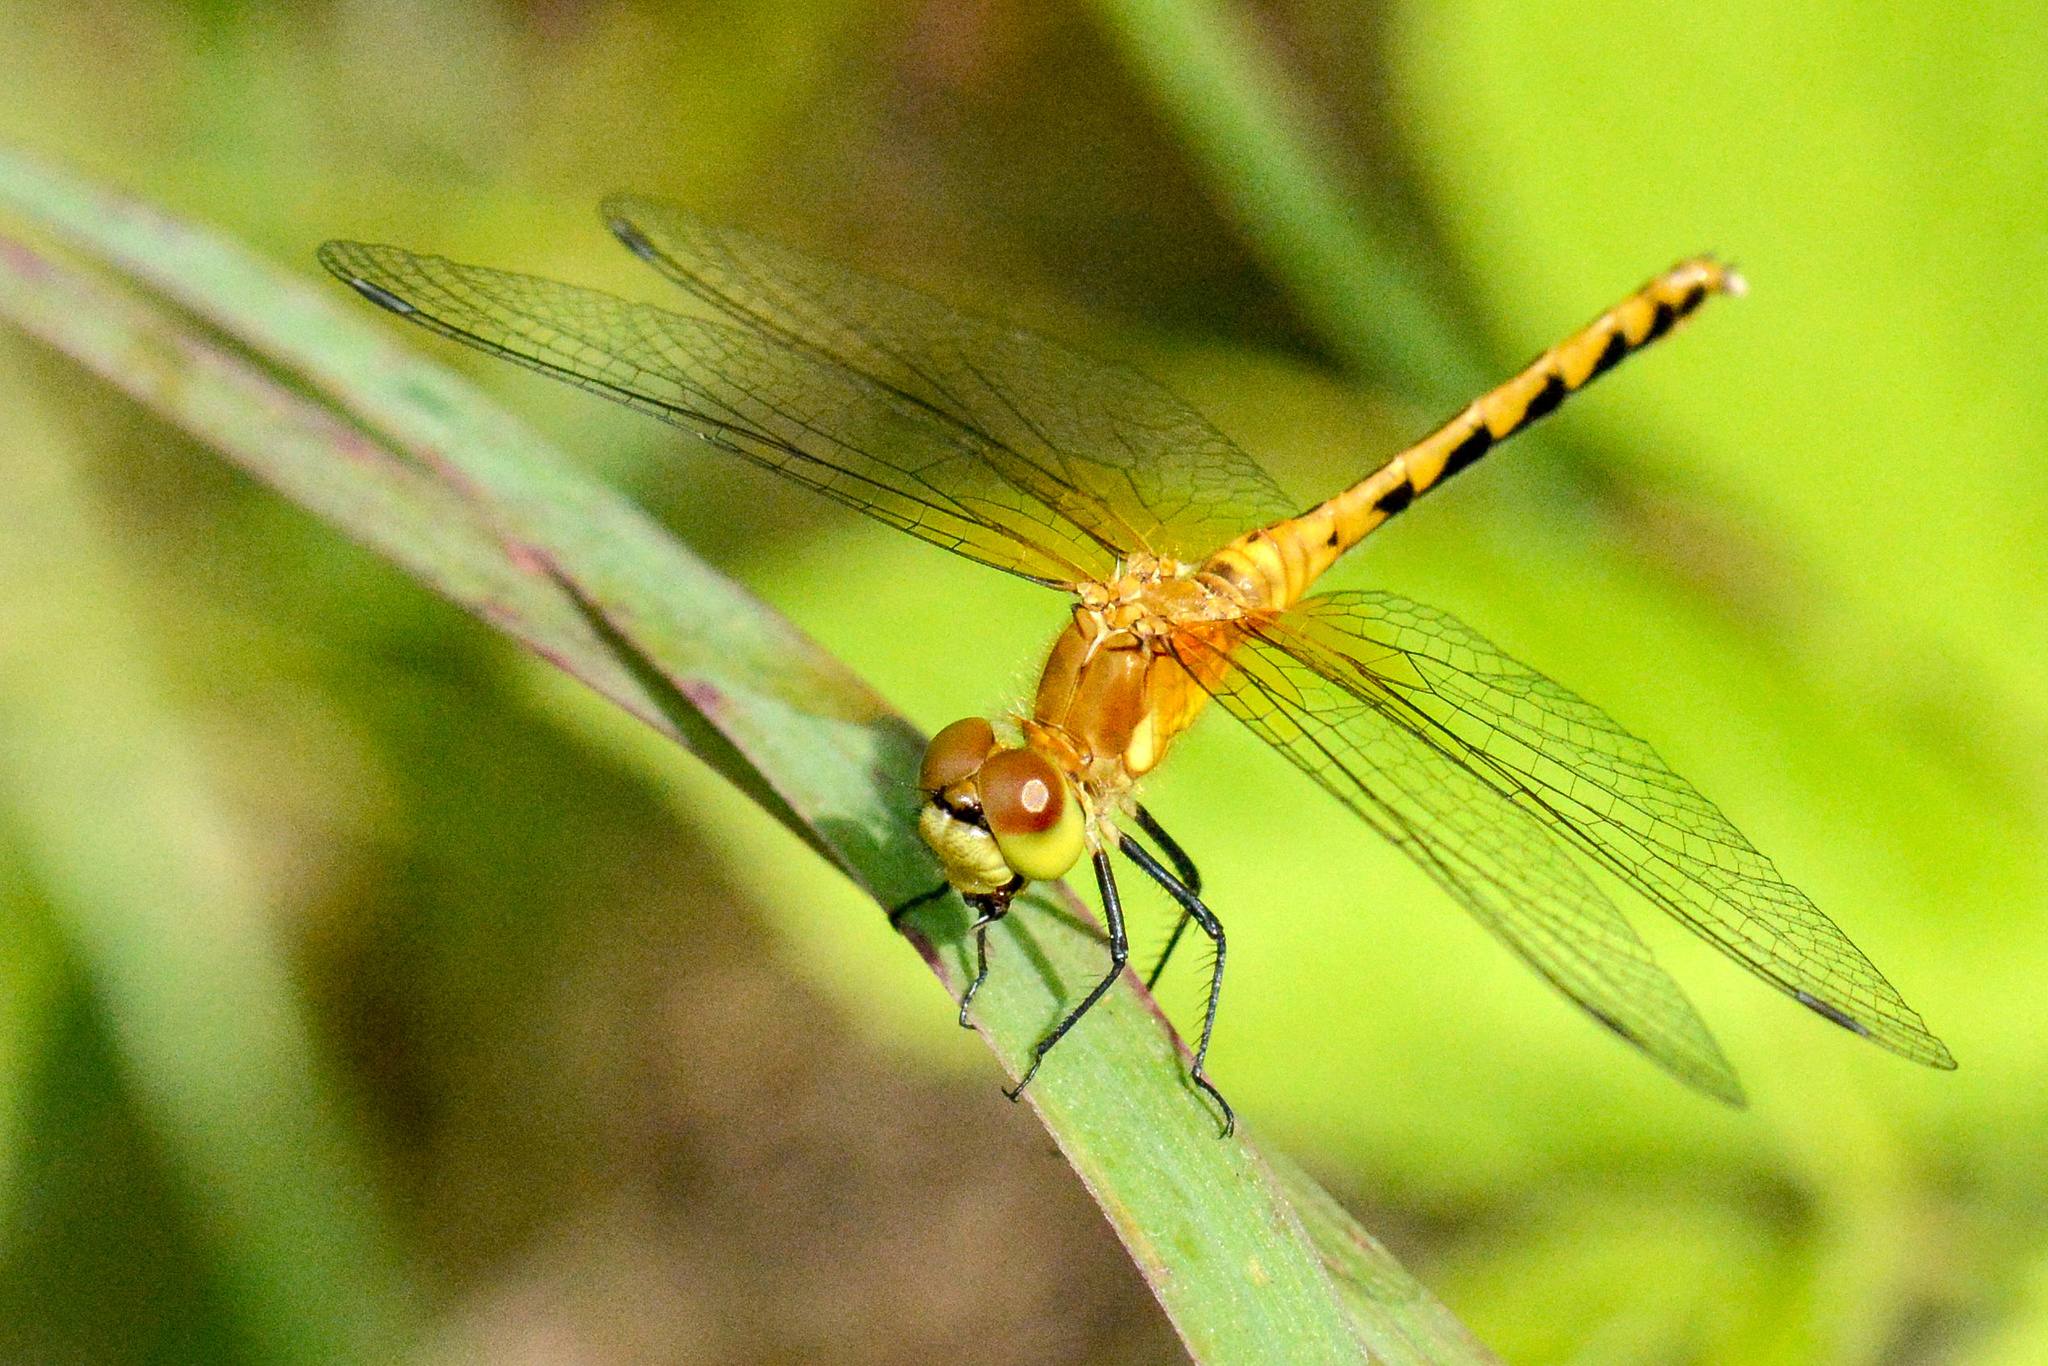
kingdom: Animalia
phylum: Arthropoda
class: Insecta
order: Odonata
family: Libellulidae
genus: Sympetrum
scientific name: Sympetrum obtrusum
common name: White-faced meadowhawk
